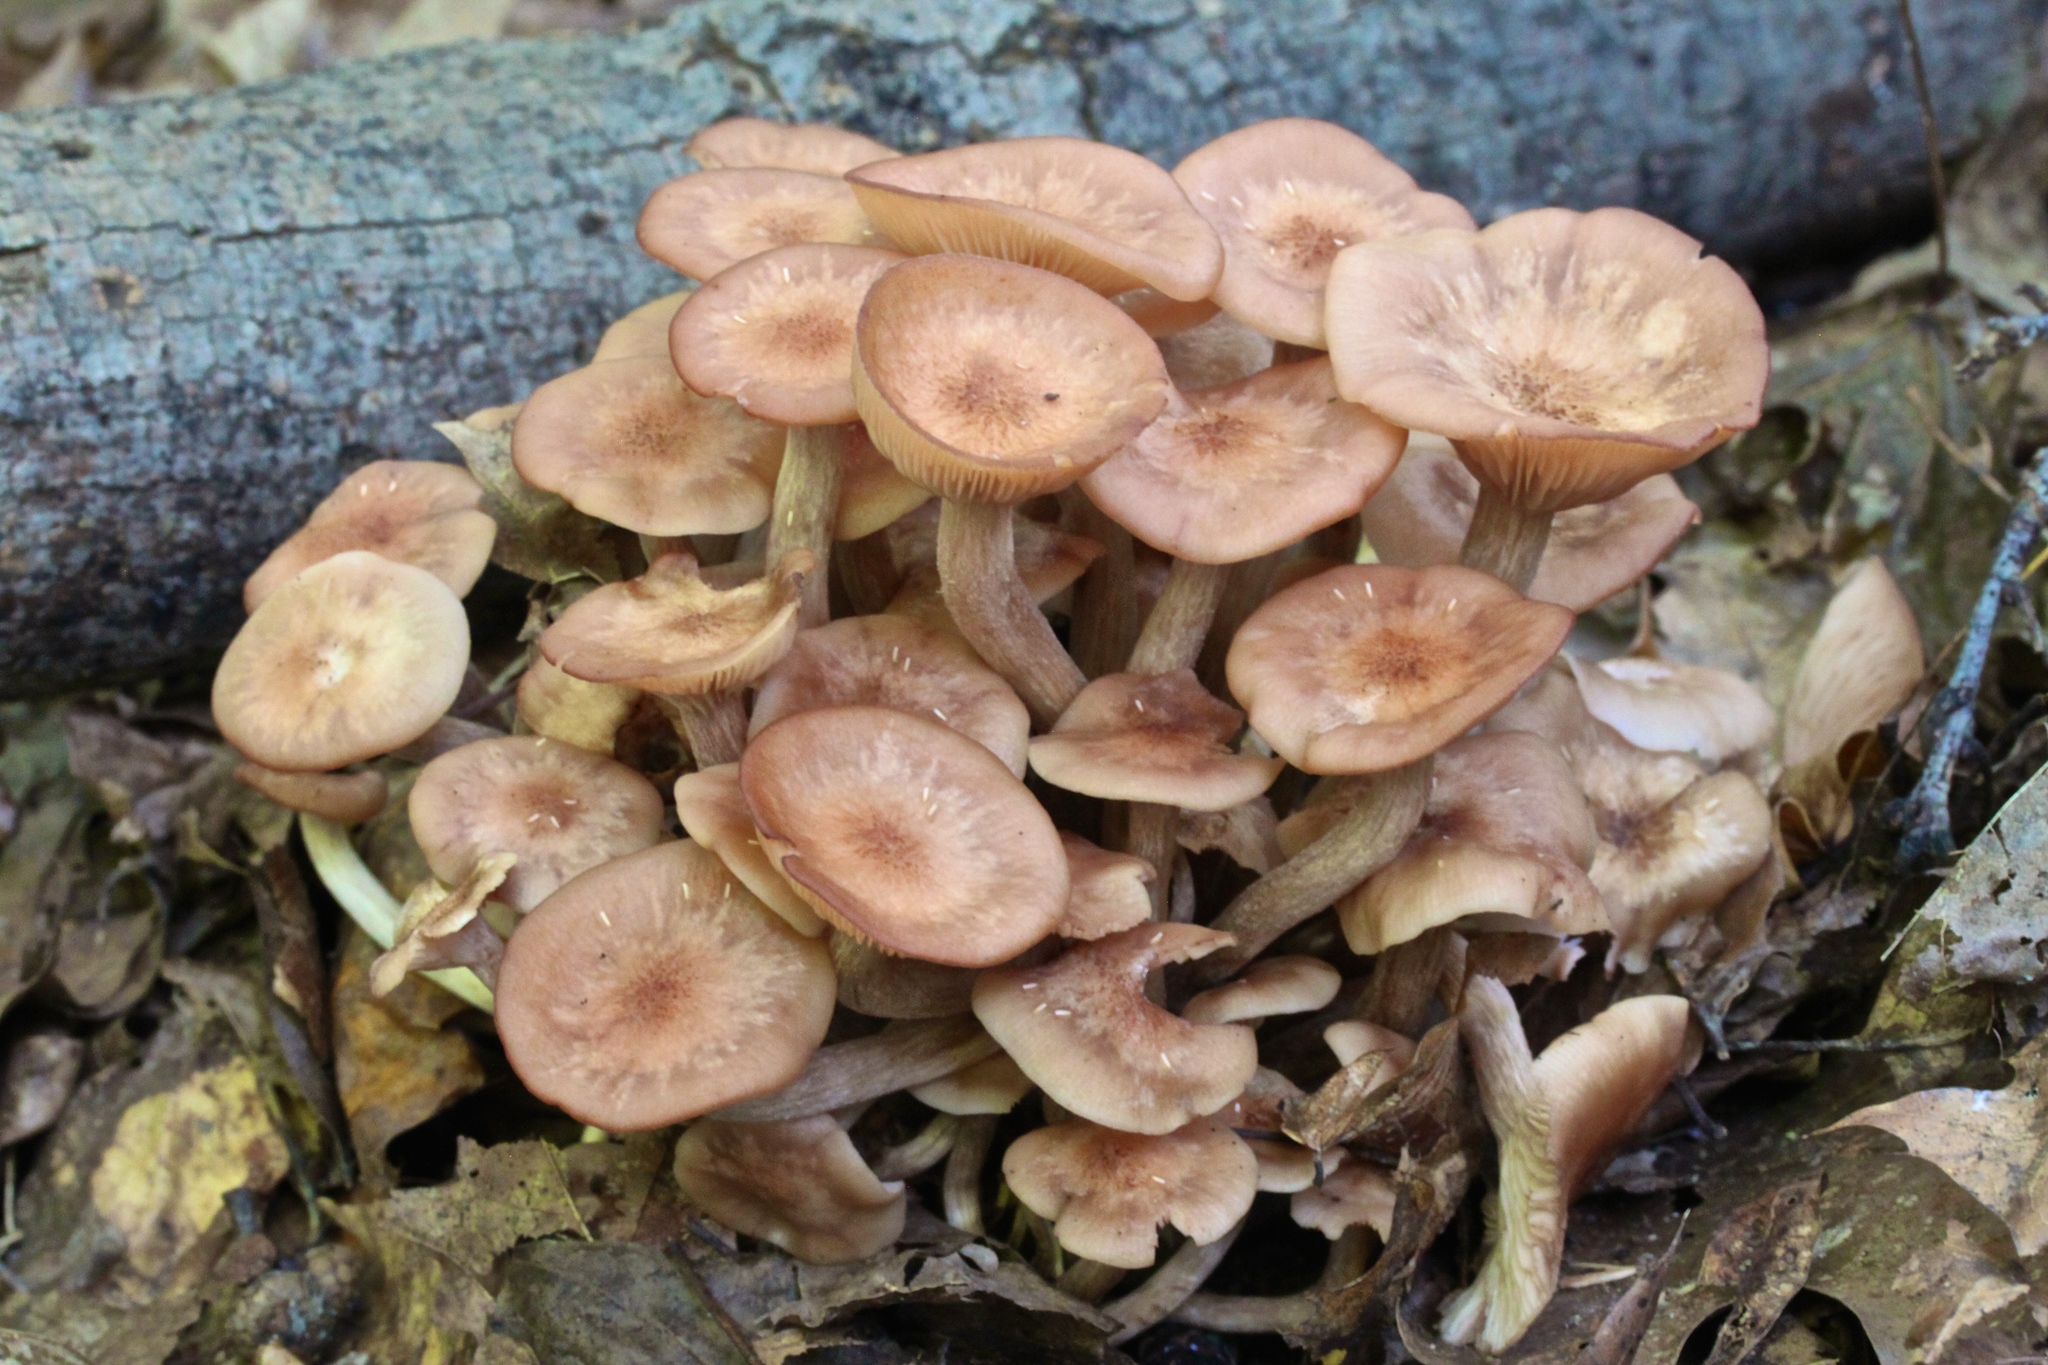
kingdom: Fungi
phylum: Basidiomycota
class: Agaricomycetes
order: Agaricales
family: Physalacriaceae
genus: Desarmillaria
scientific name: Desarmillaria caespitosa
